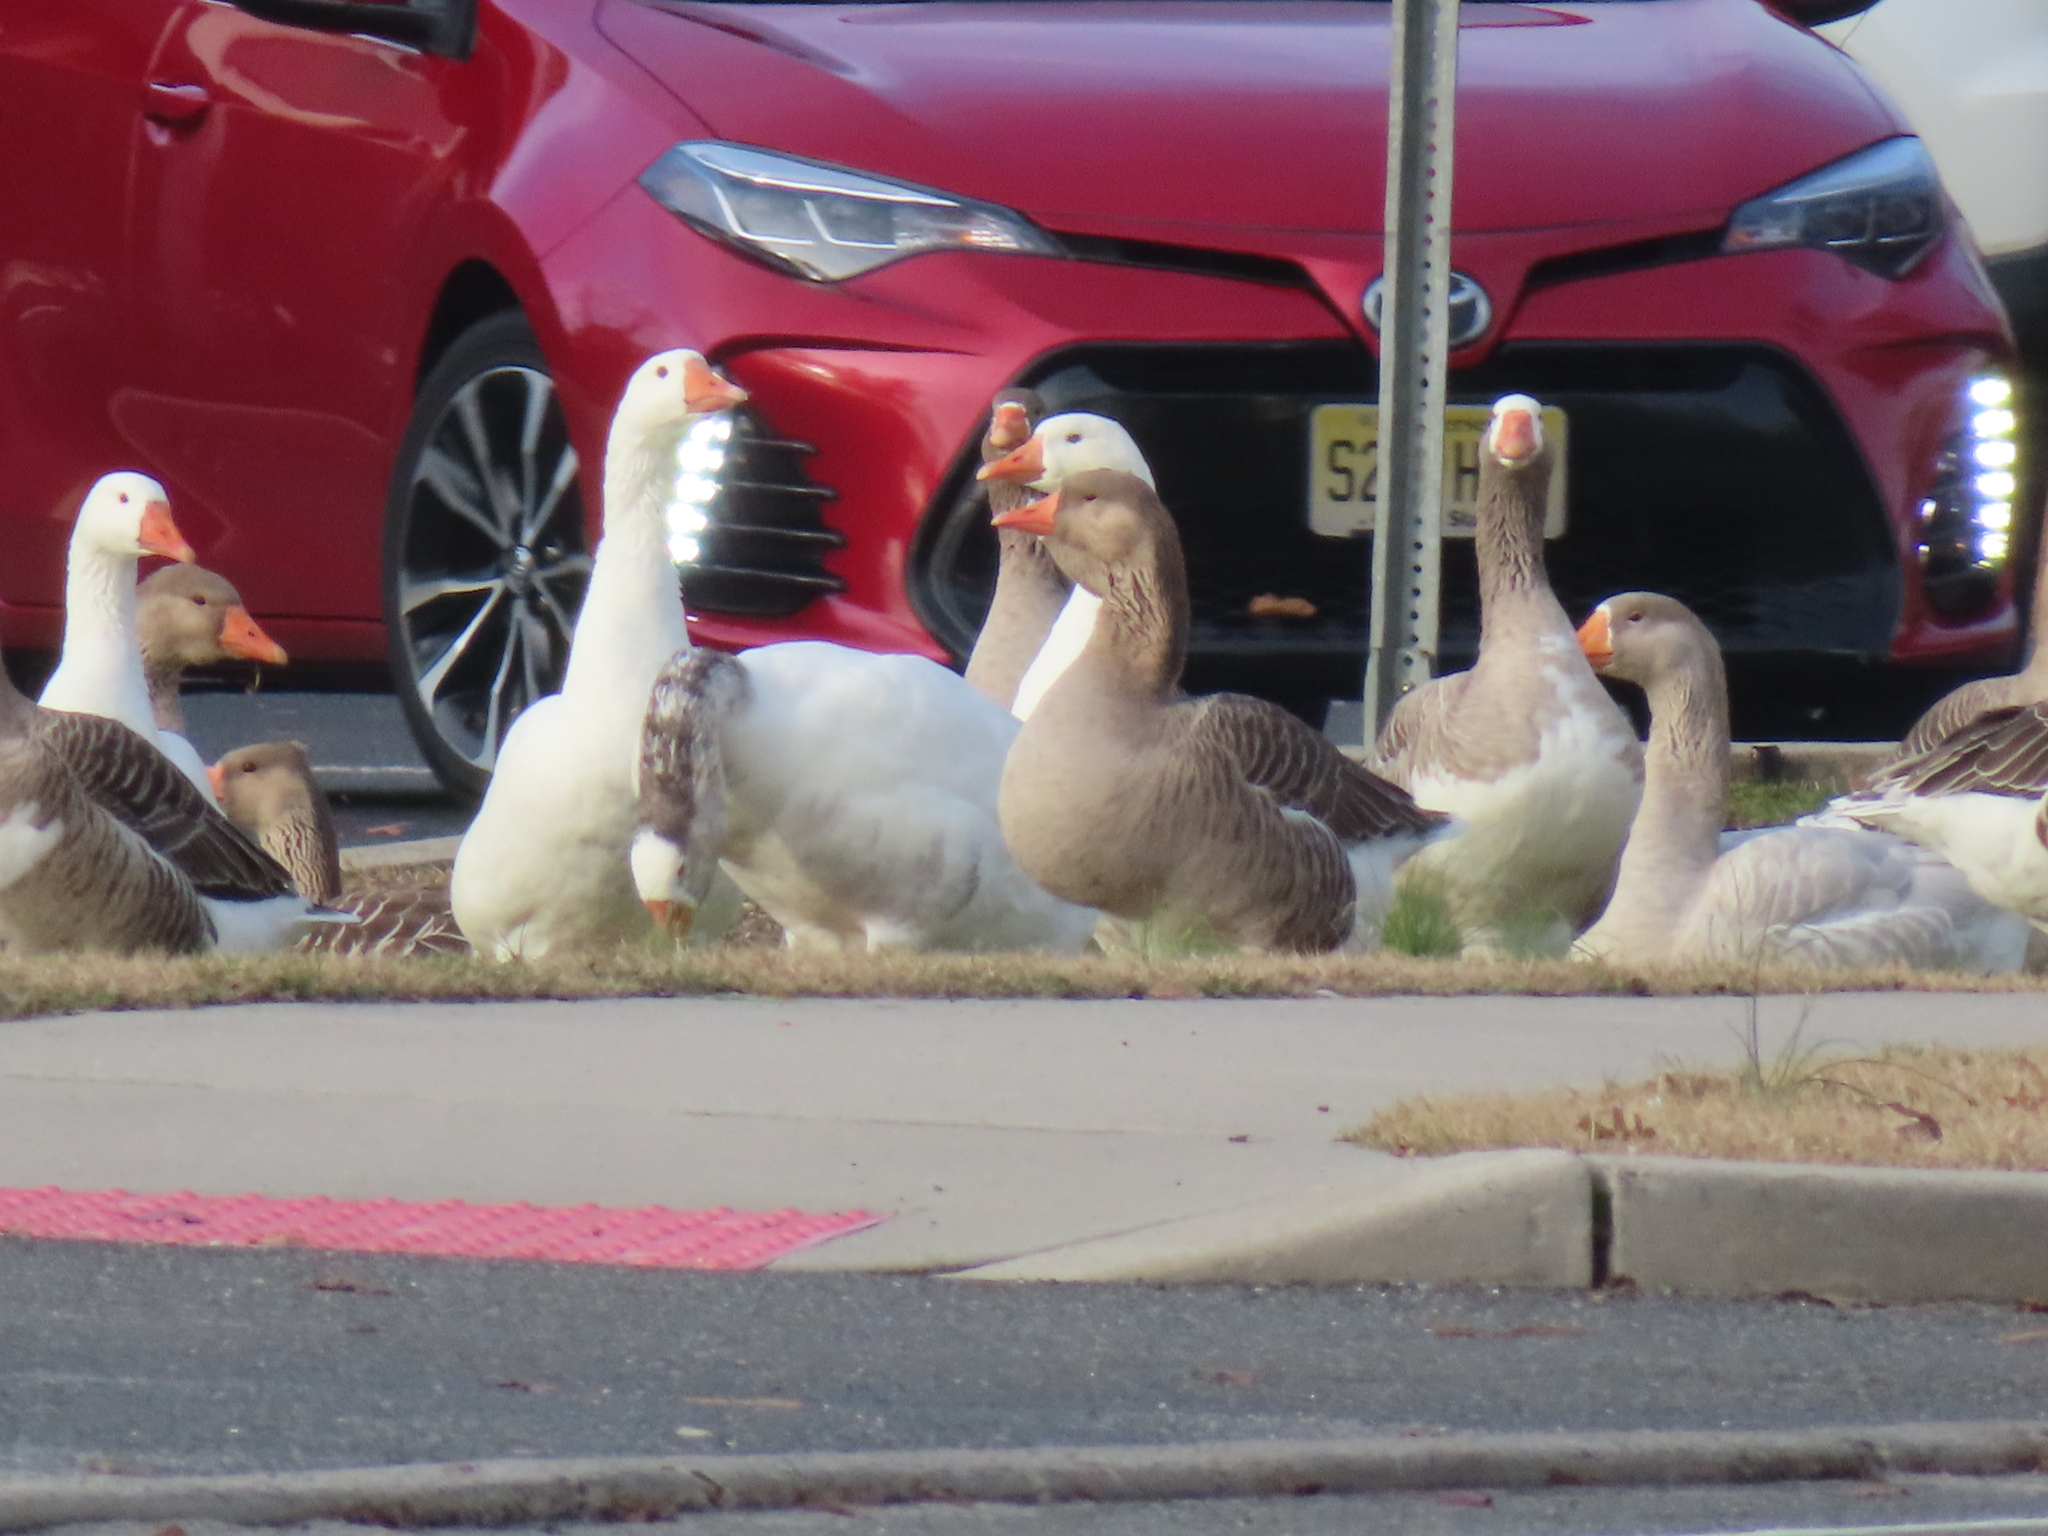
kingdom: Animalia
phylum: Chordata
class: Aves
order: Anseriformes
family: Anatidae
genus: Anser
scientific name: Anser
